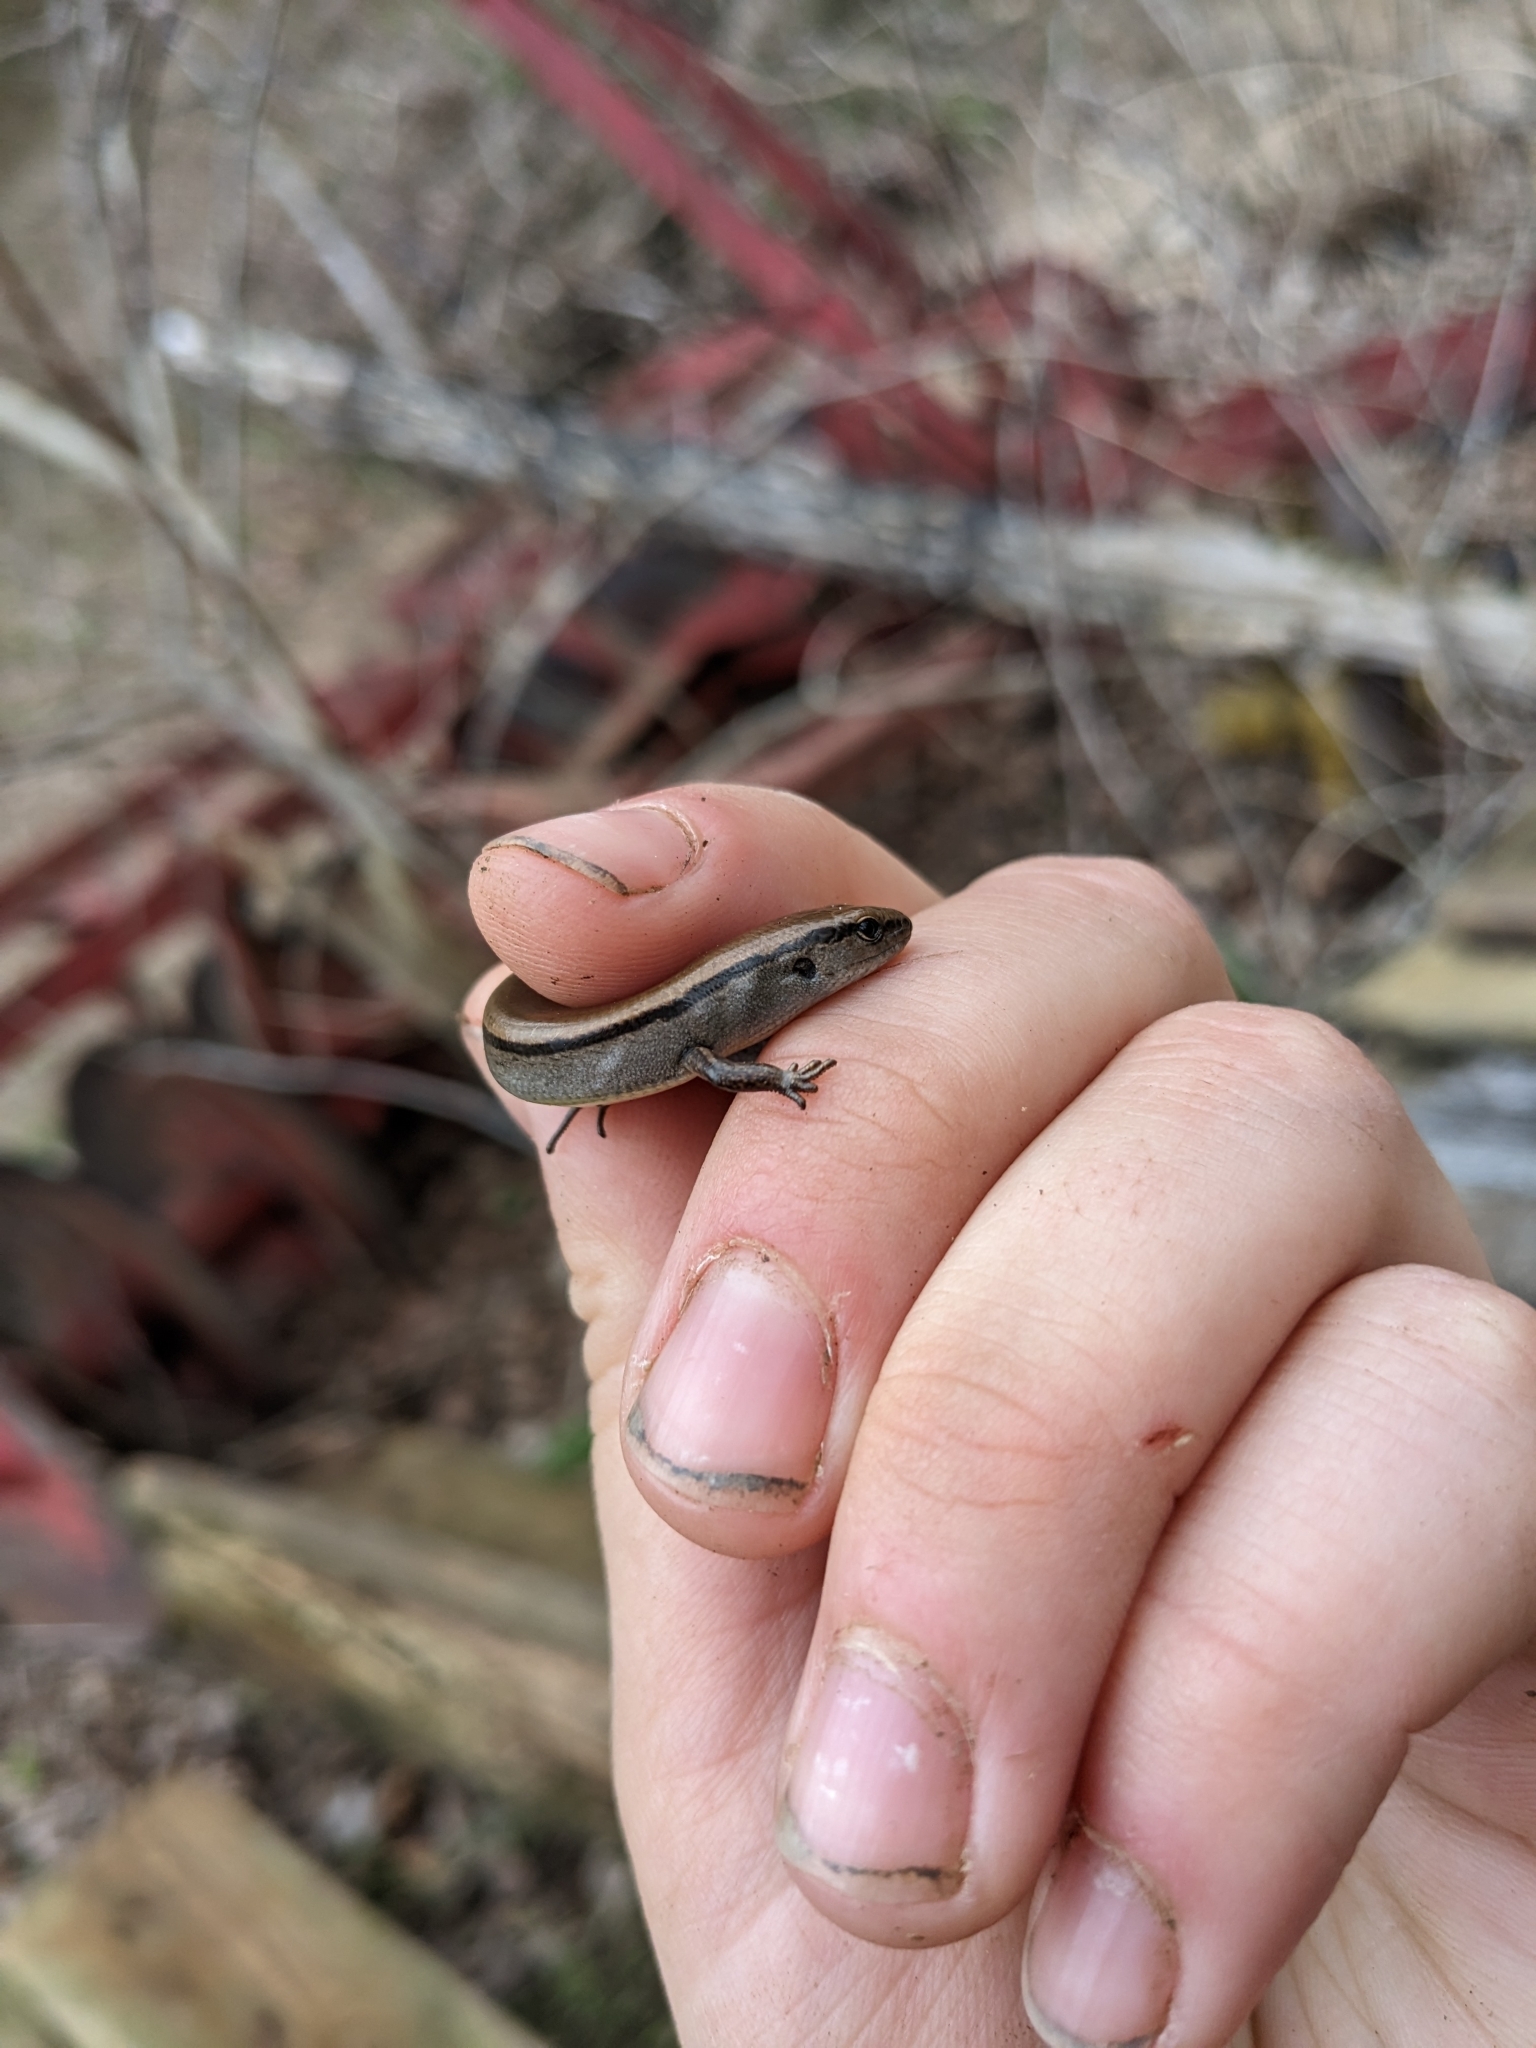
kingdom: Animalia
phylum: Chordata
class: Squamata
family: Scincidae
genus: Scincella
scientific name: Scincella lateralis
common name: Ground skink
